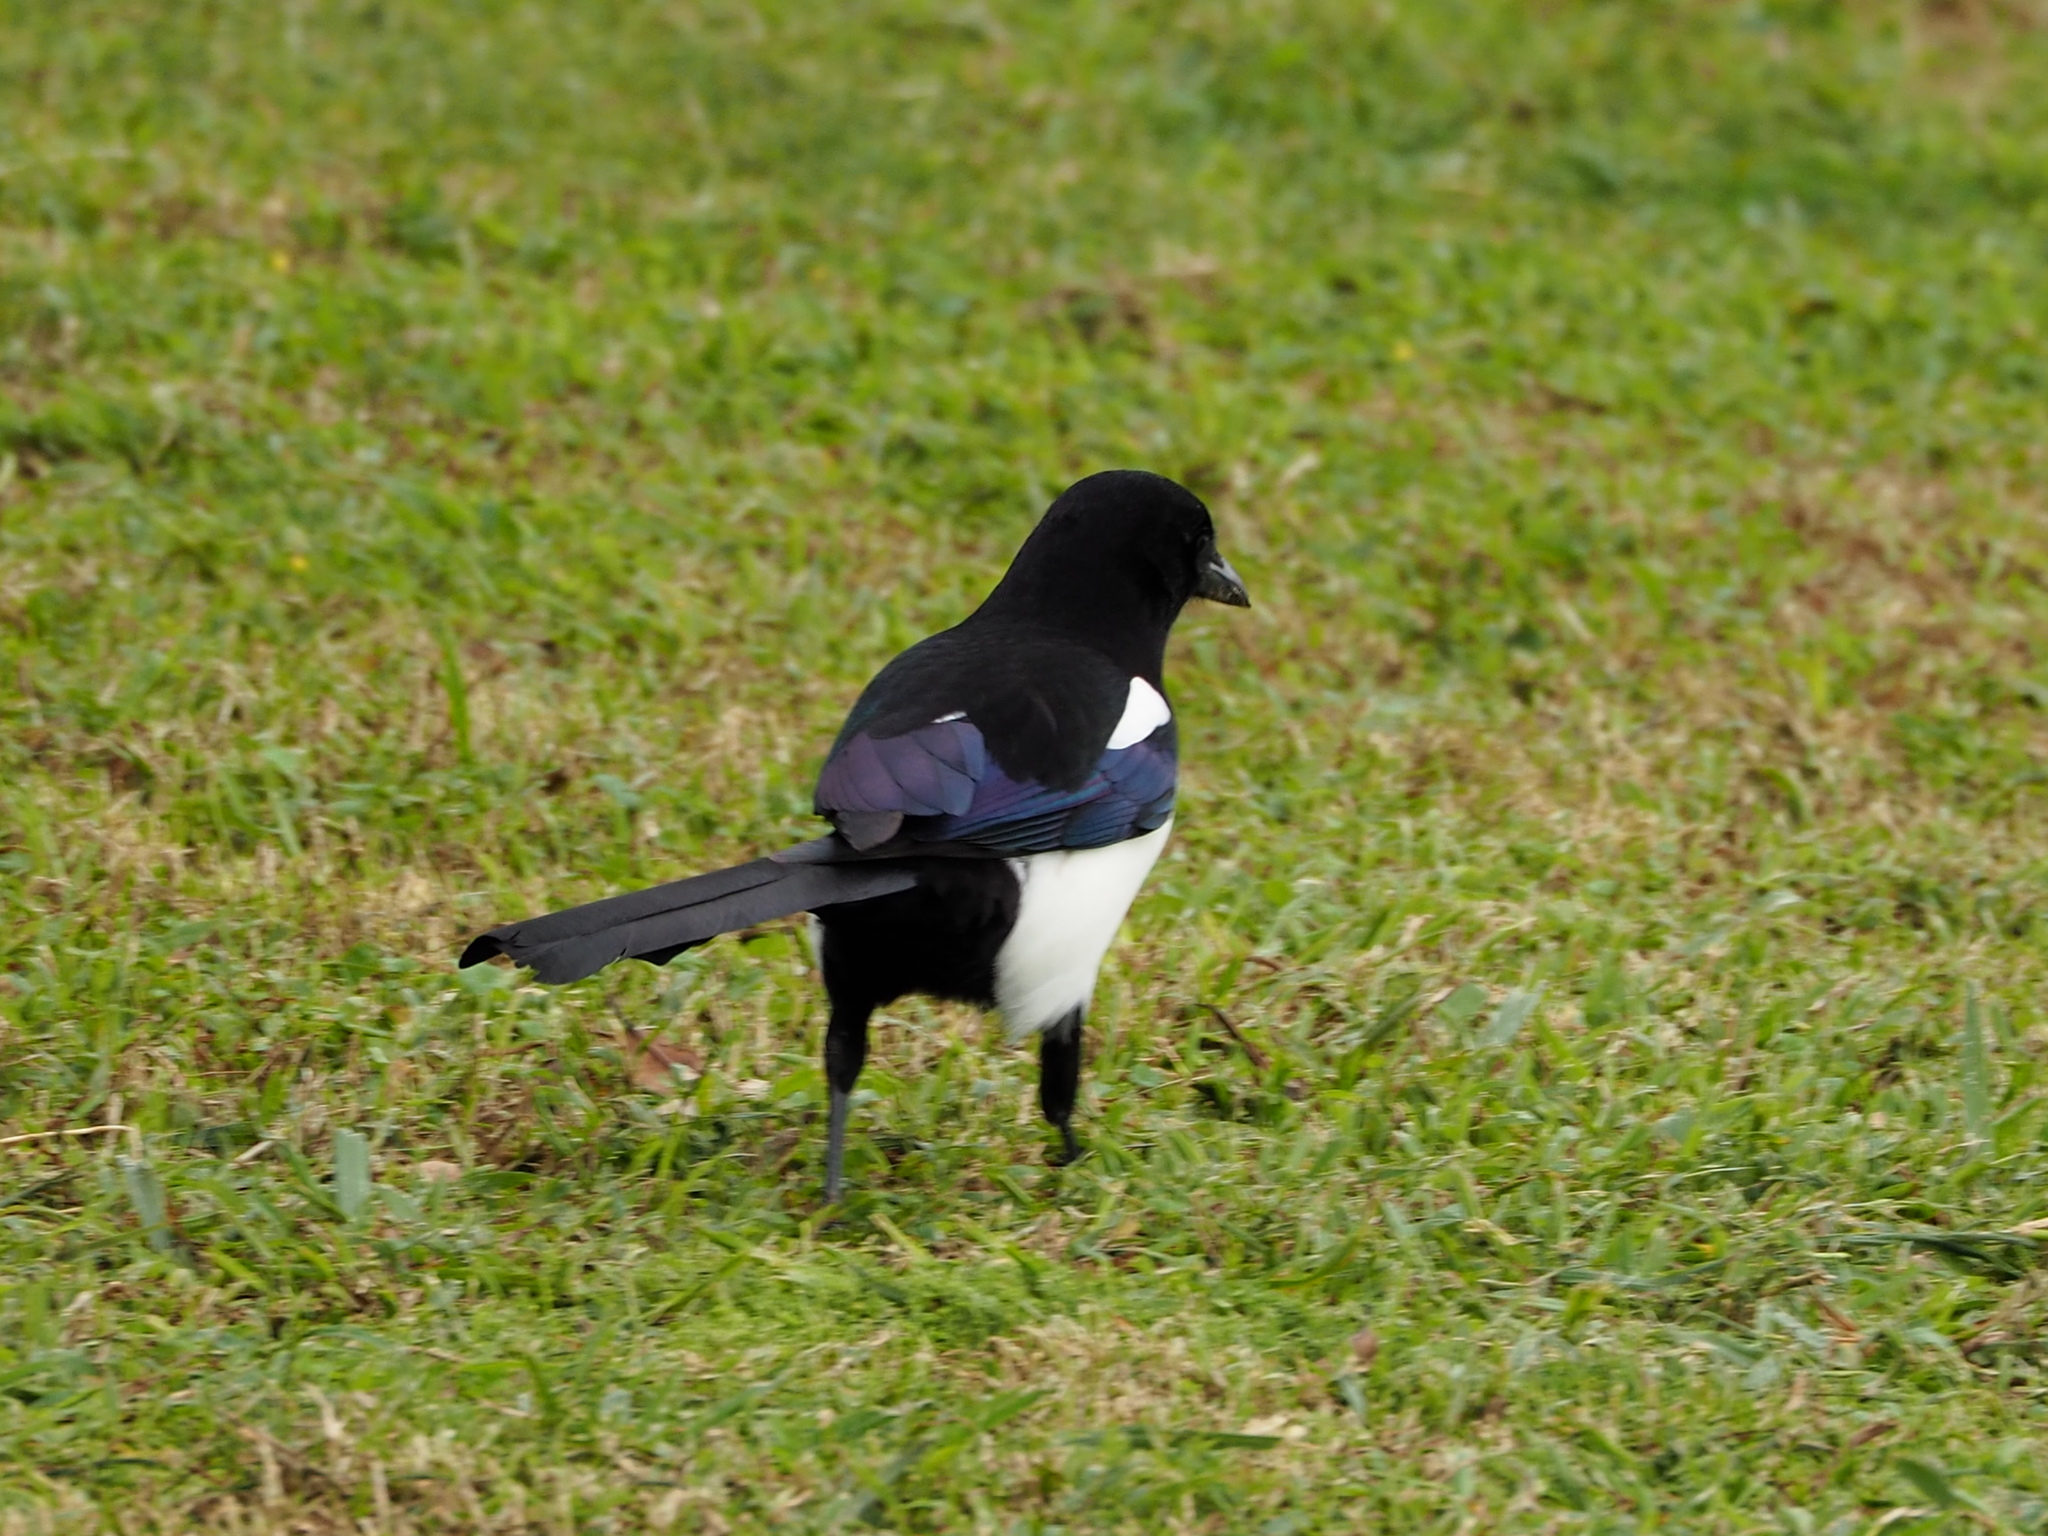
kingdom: Animalia
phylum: Chordata
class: Aves
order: Passeriformes
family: Corvidae
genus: Pica
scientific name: Pica serica
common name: Oriental magpie
